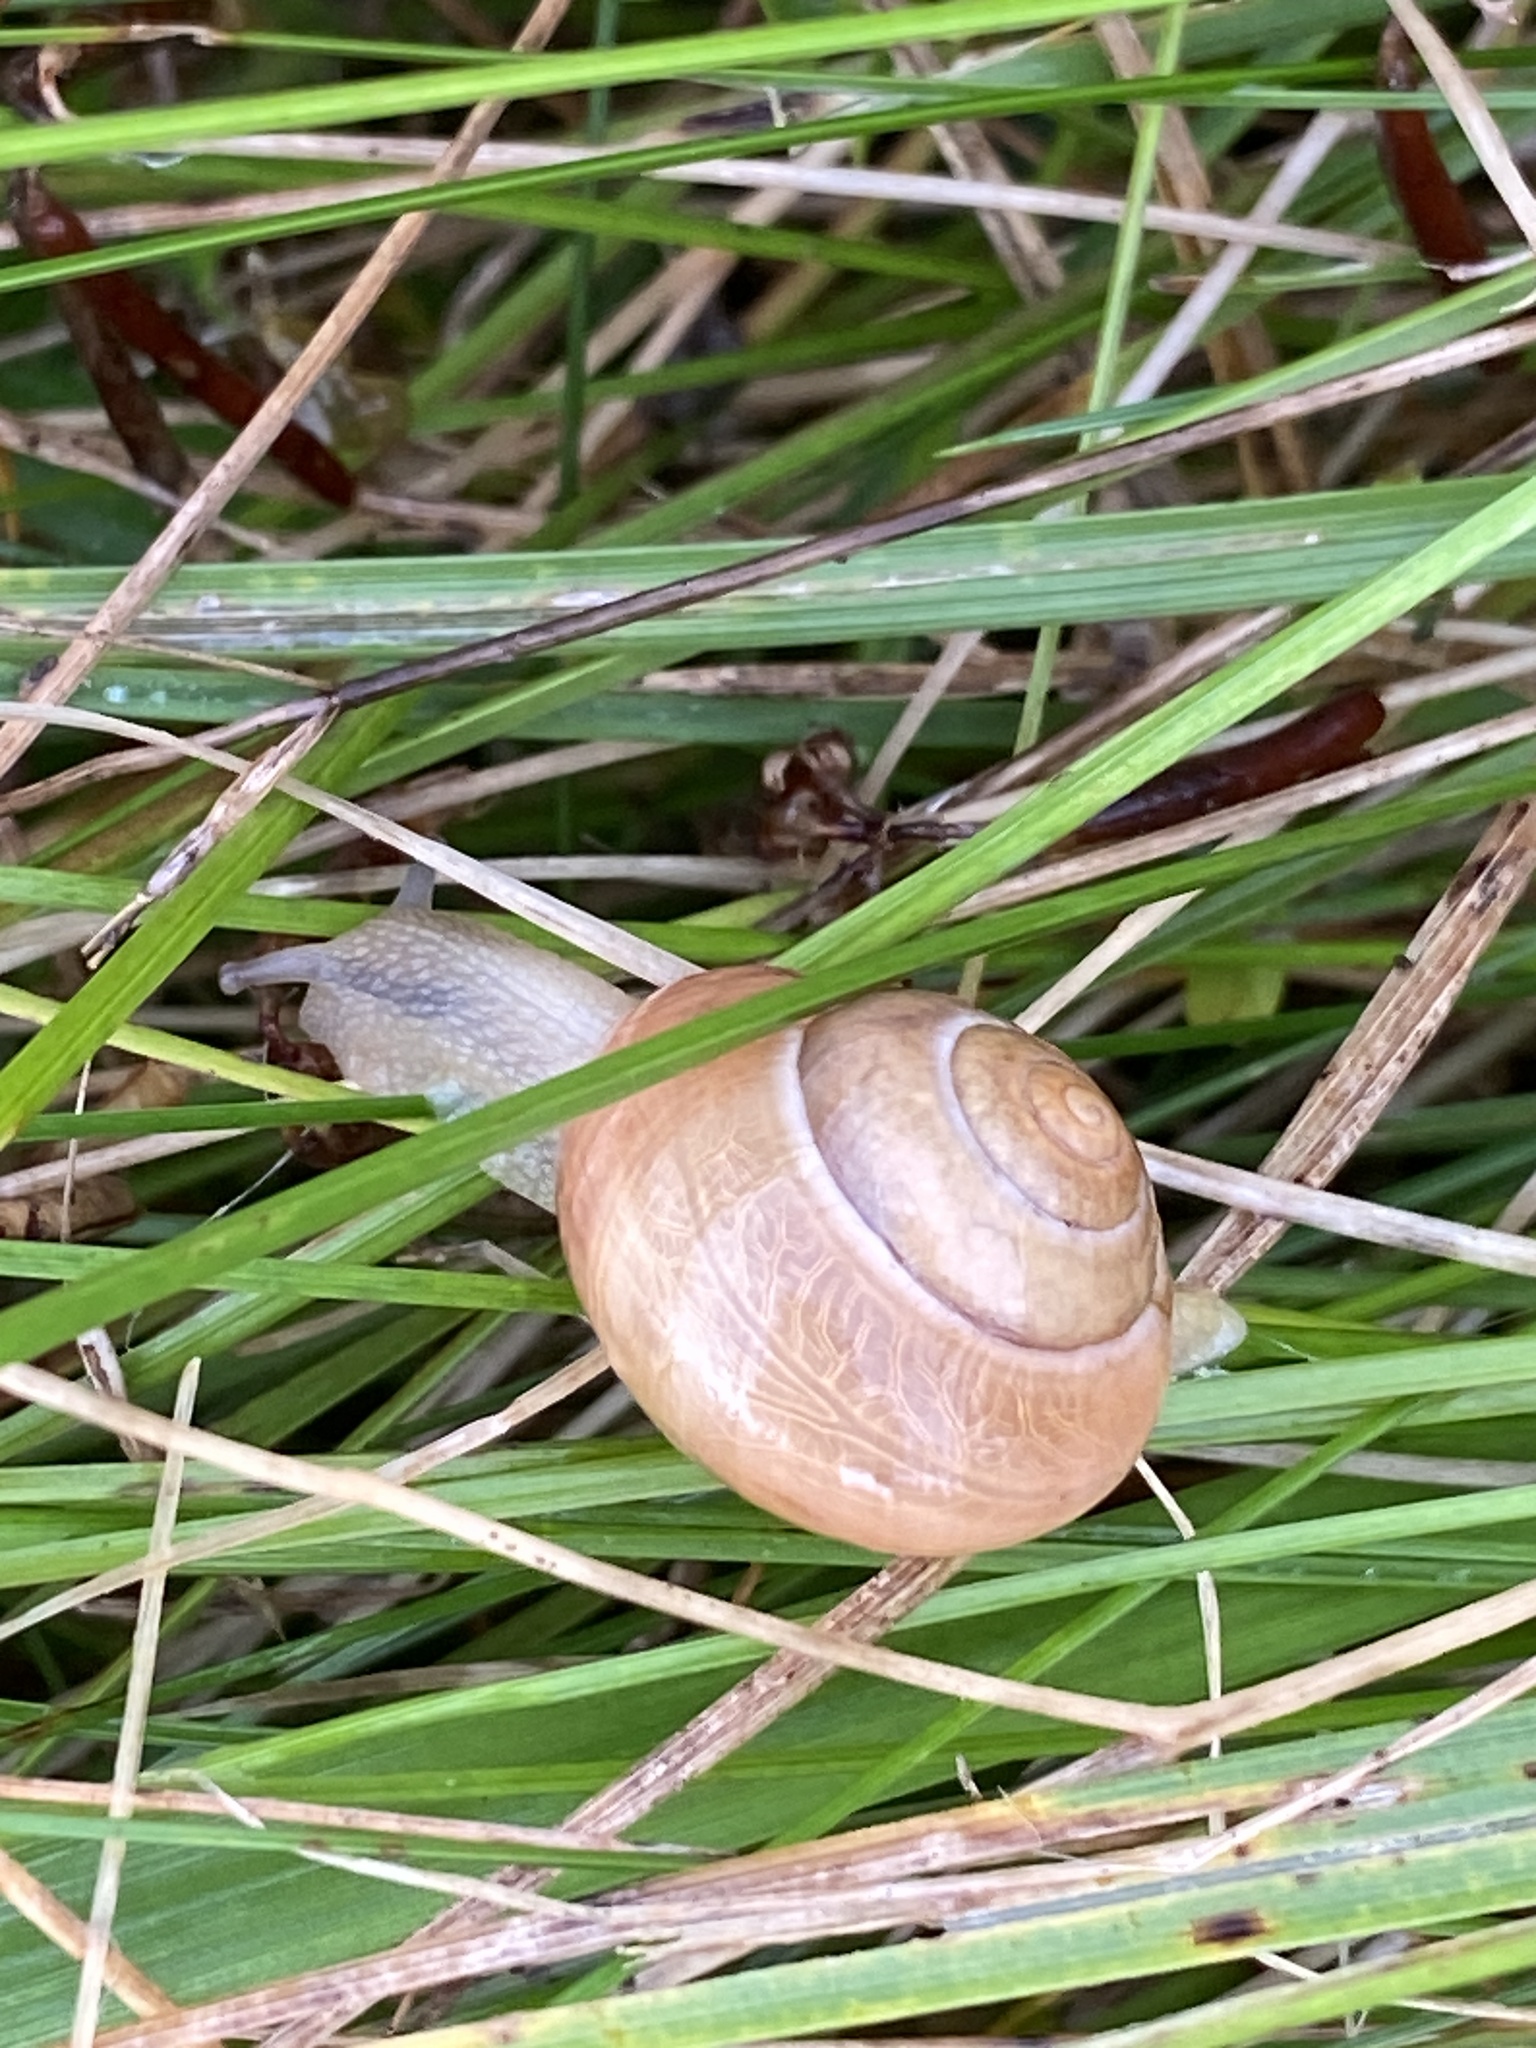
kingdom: Animalia
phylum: Mollusca
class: Gastropoda
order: Stylommatophora
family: Helicidae
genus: Cepaea
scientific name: Cepaea nemoralis
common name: Grovesnail
